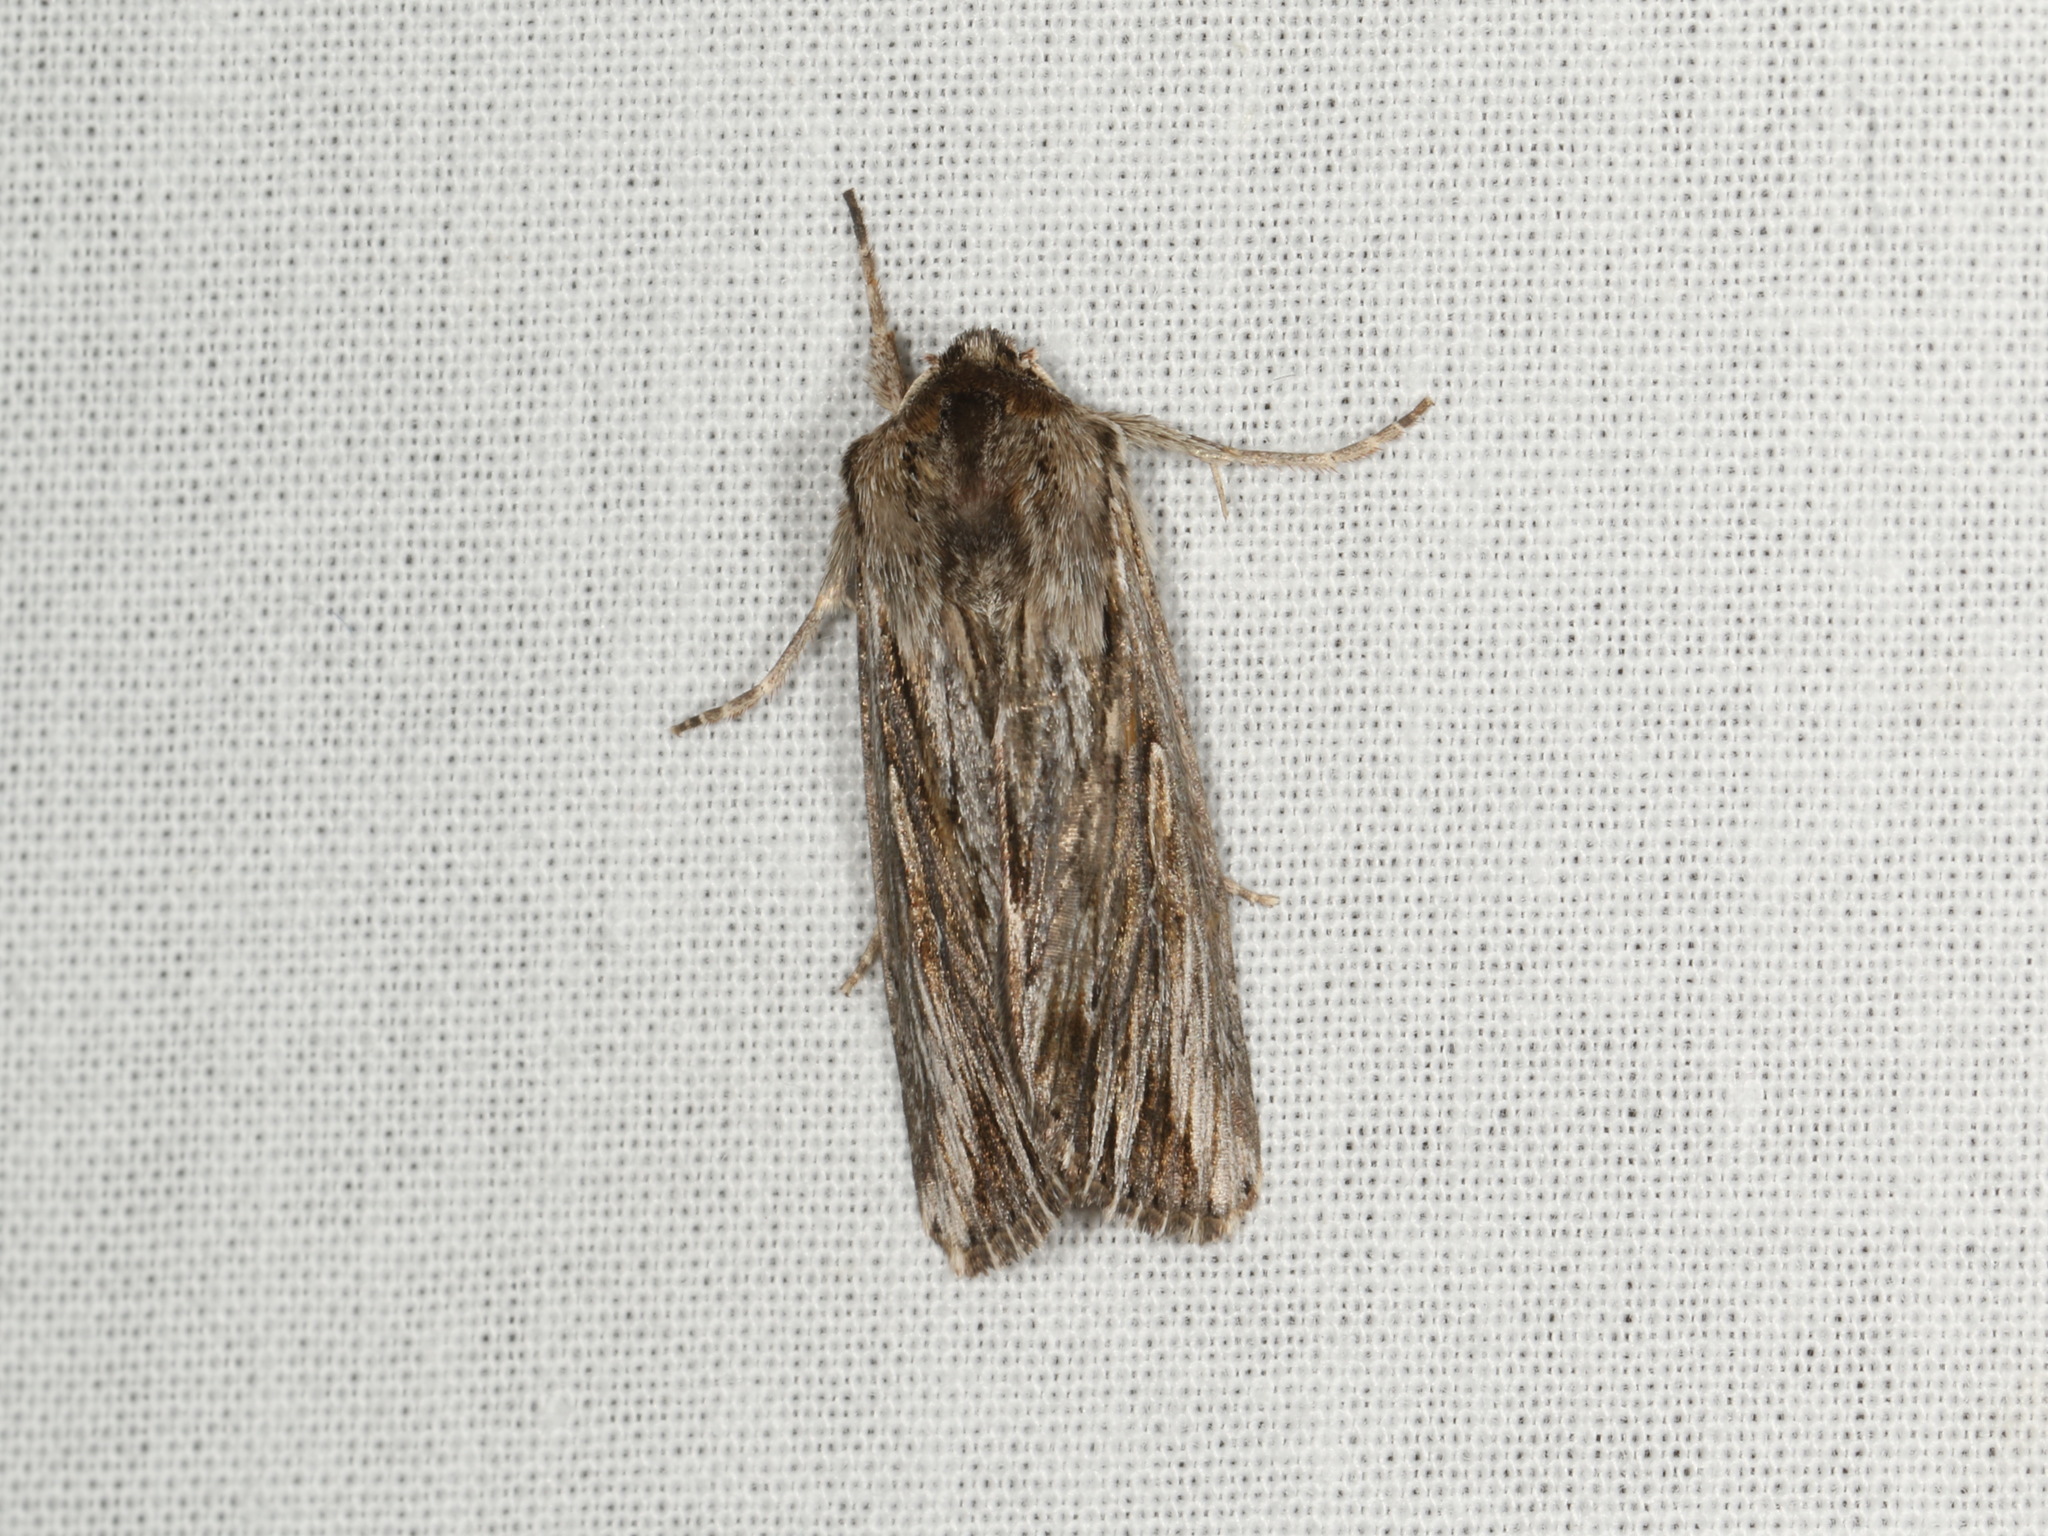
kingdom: Animalia
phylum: Arthropoda
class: Insecta
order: Lepidoptera
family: Noctuidae
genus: Persectania
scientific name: Persectania ewingii
